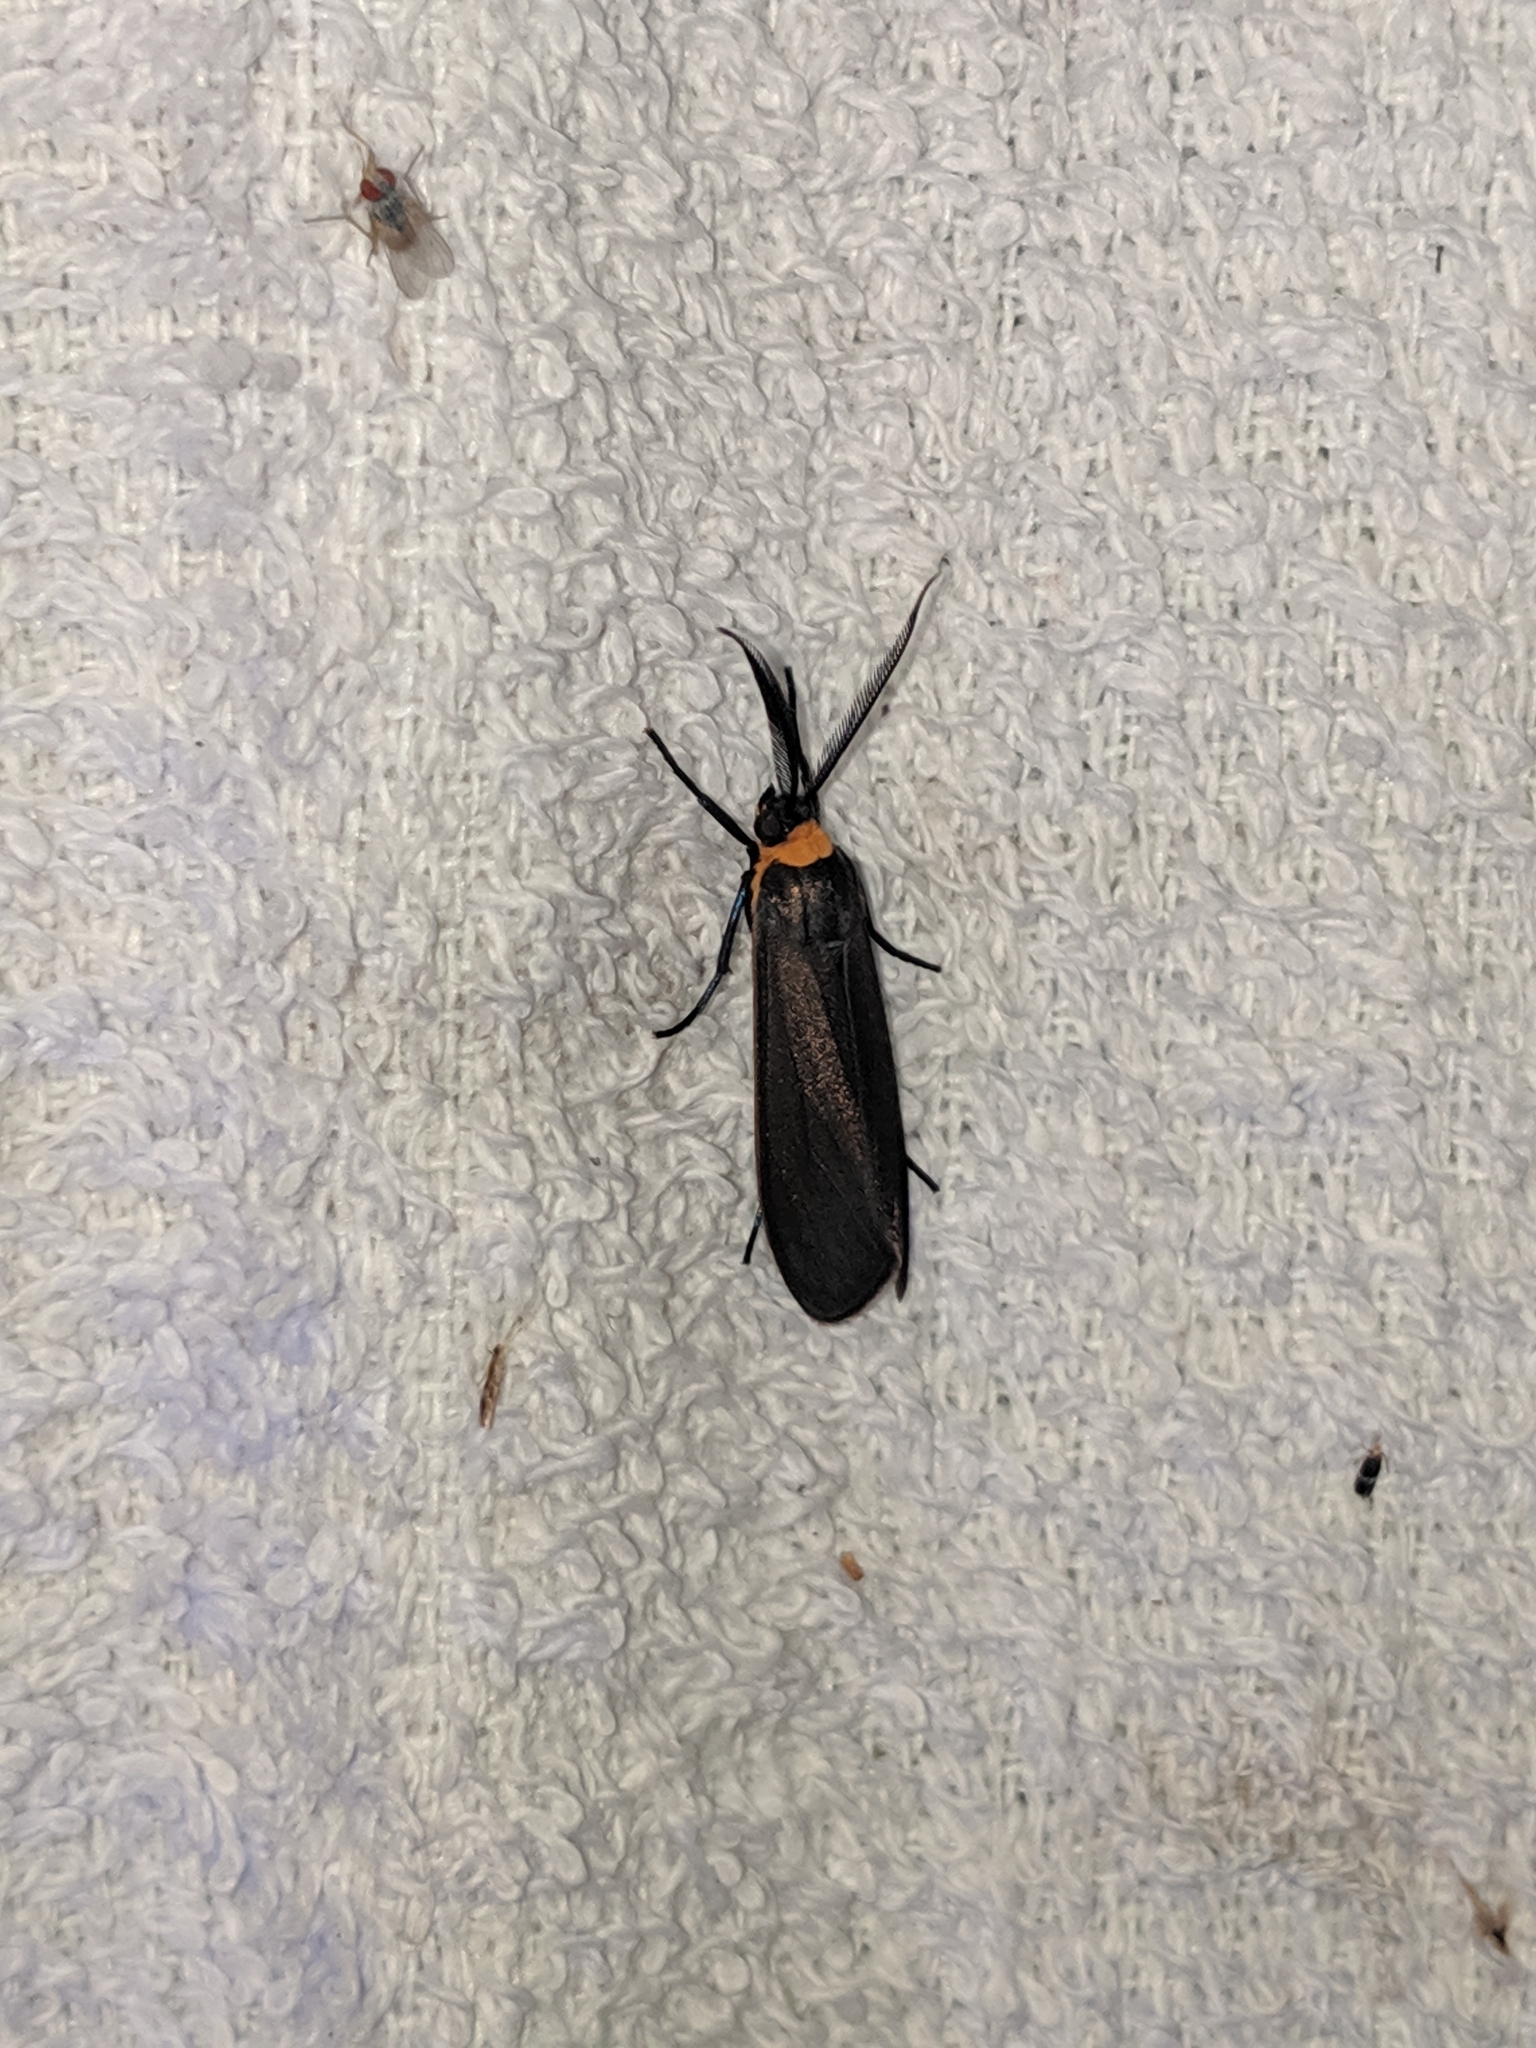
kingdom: Animalia
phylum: Arthropoda
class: Insecta
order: Lepidoptera
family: Erebidae
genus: Cisseps
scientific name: Cisseps fulvicollis
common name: Yellow-collared scape moth
